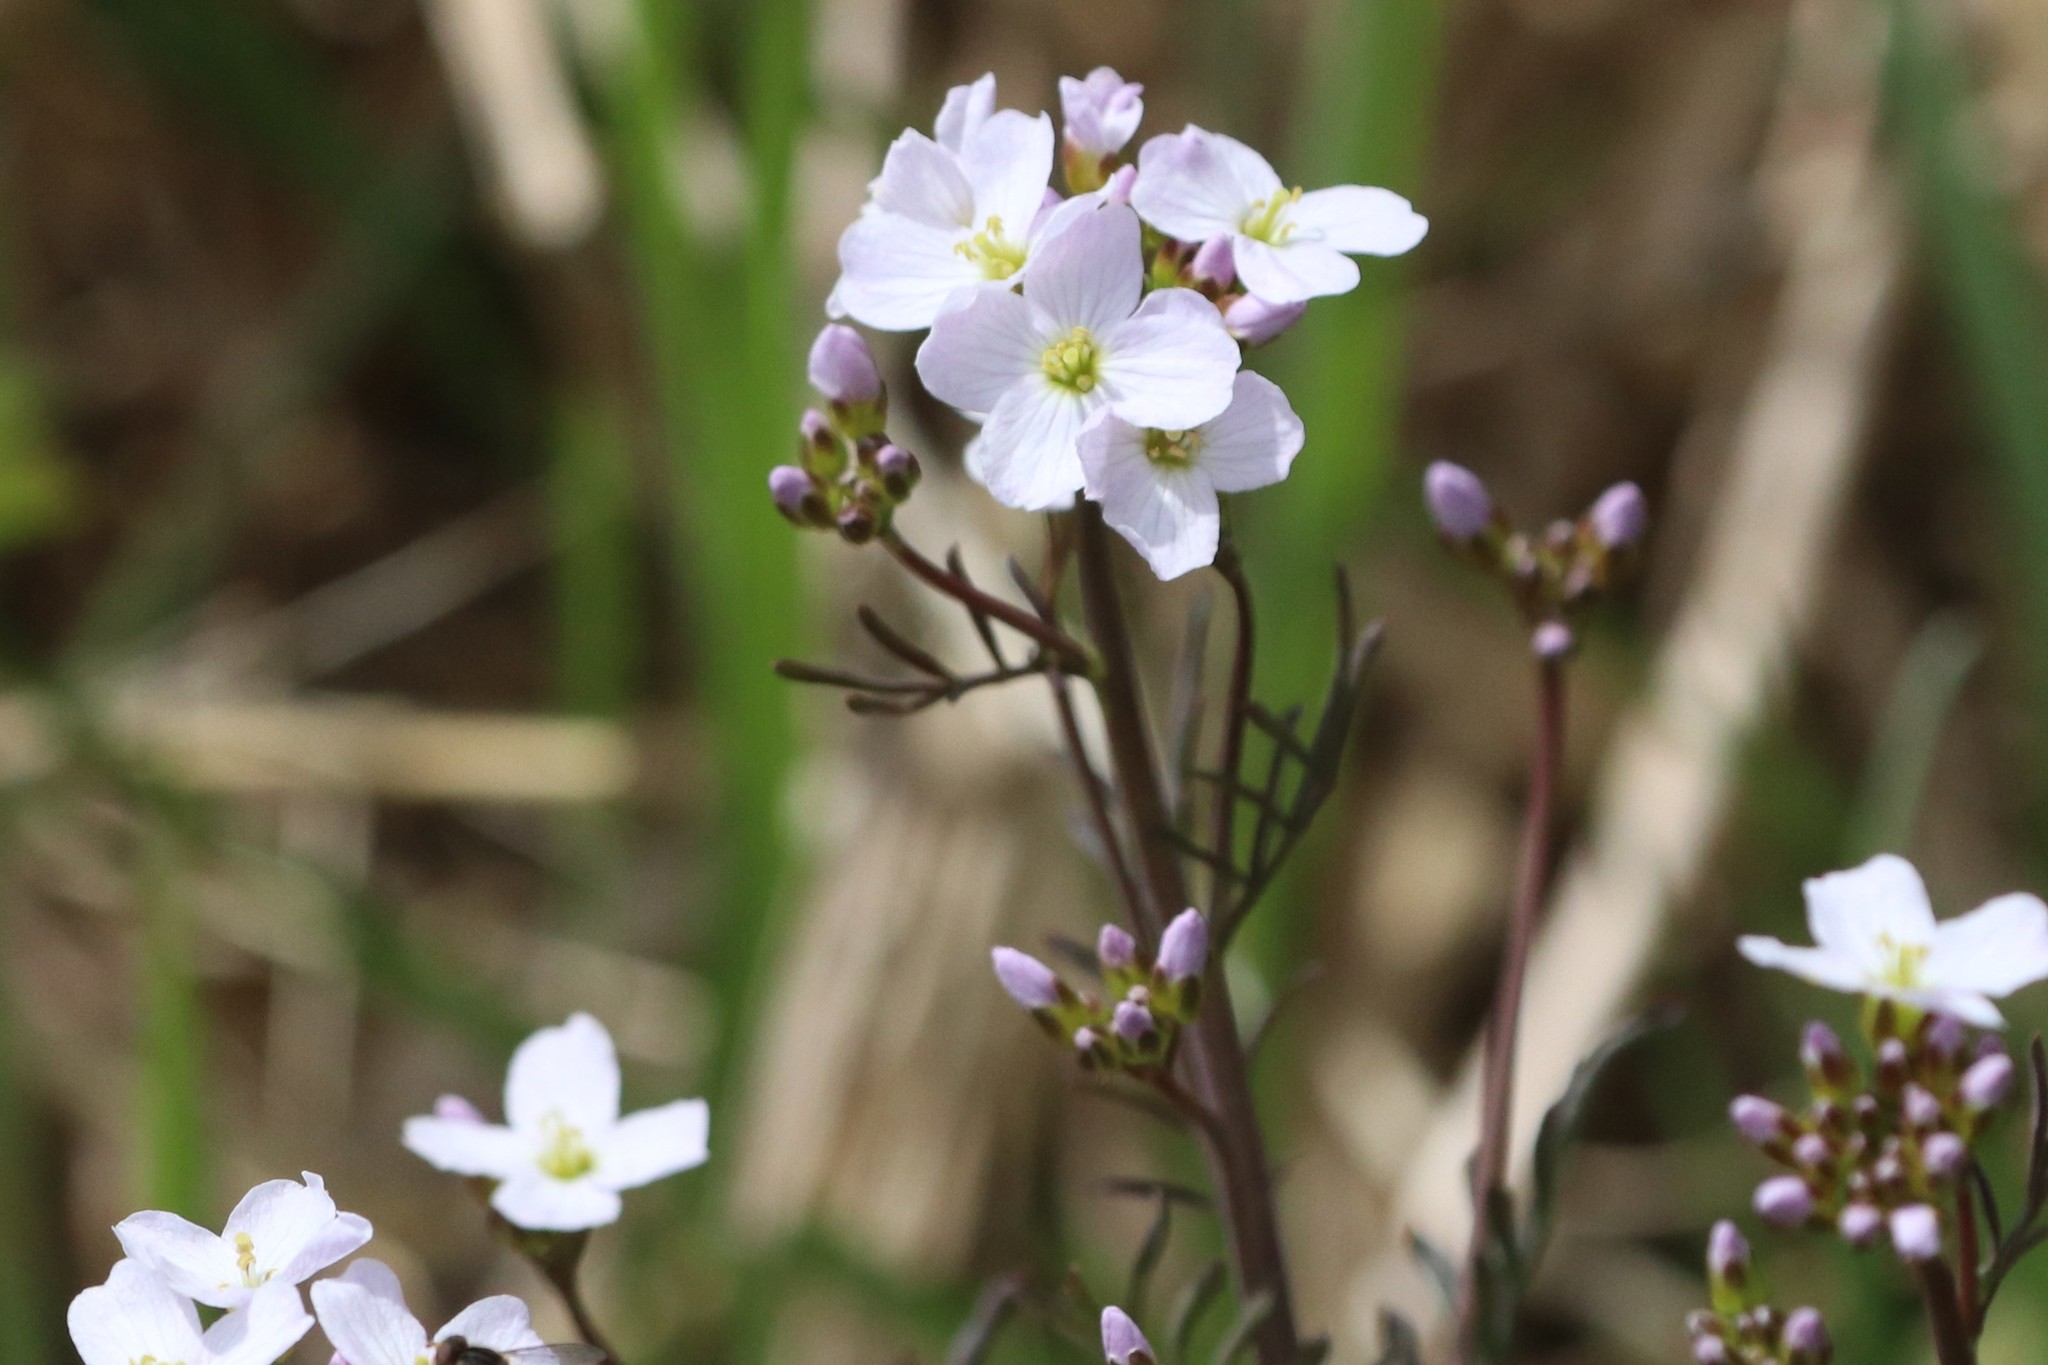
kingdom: Plantae
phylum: Tracheophyta
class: Magnoliopsida
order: Brassicales
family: Brassicaceae
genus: Cardamine
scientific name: Cardamine pratensis
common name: Cuckoo flower
